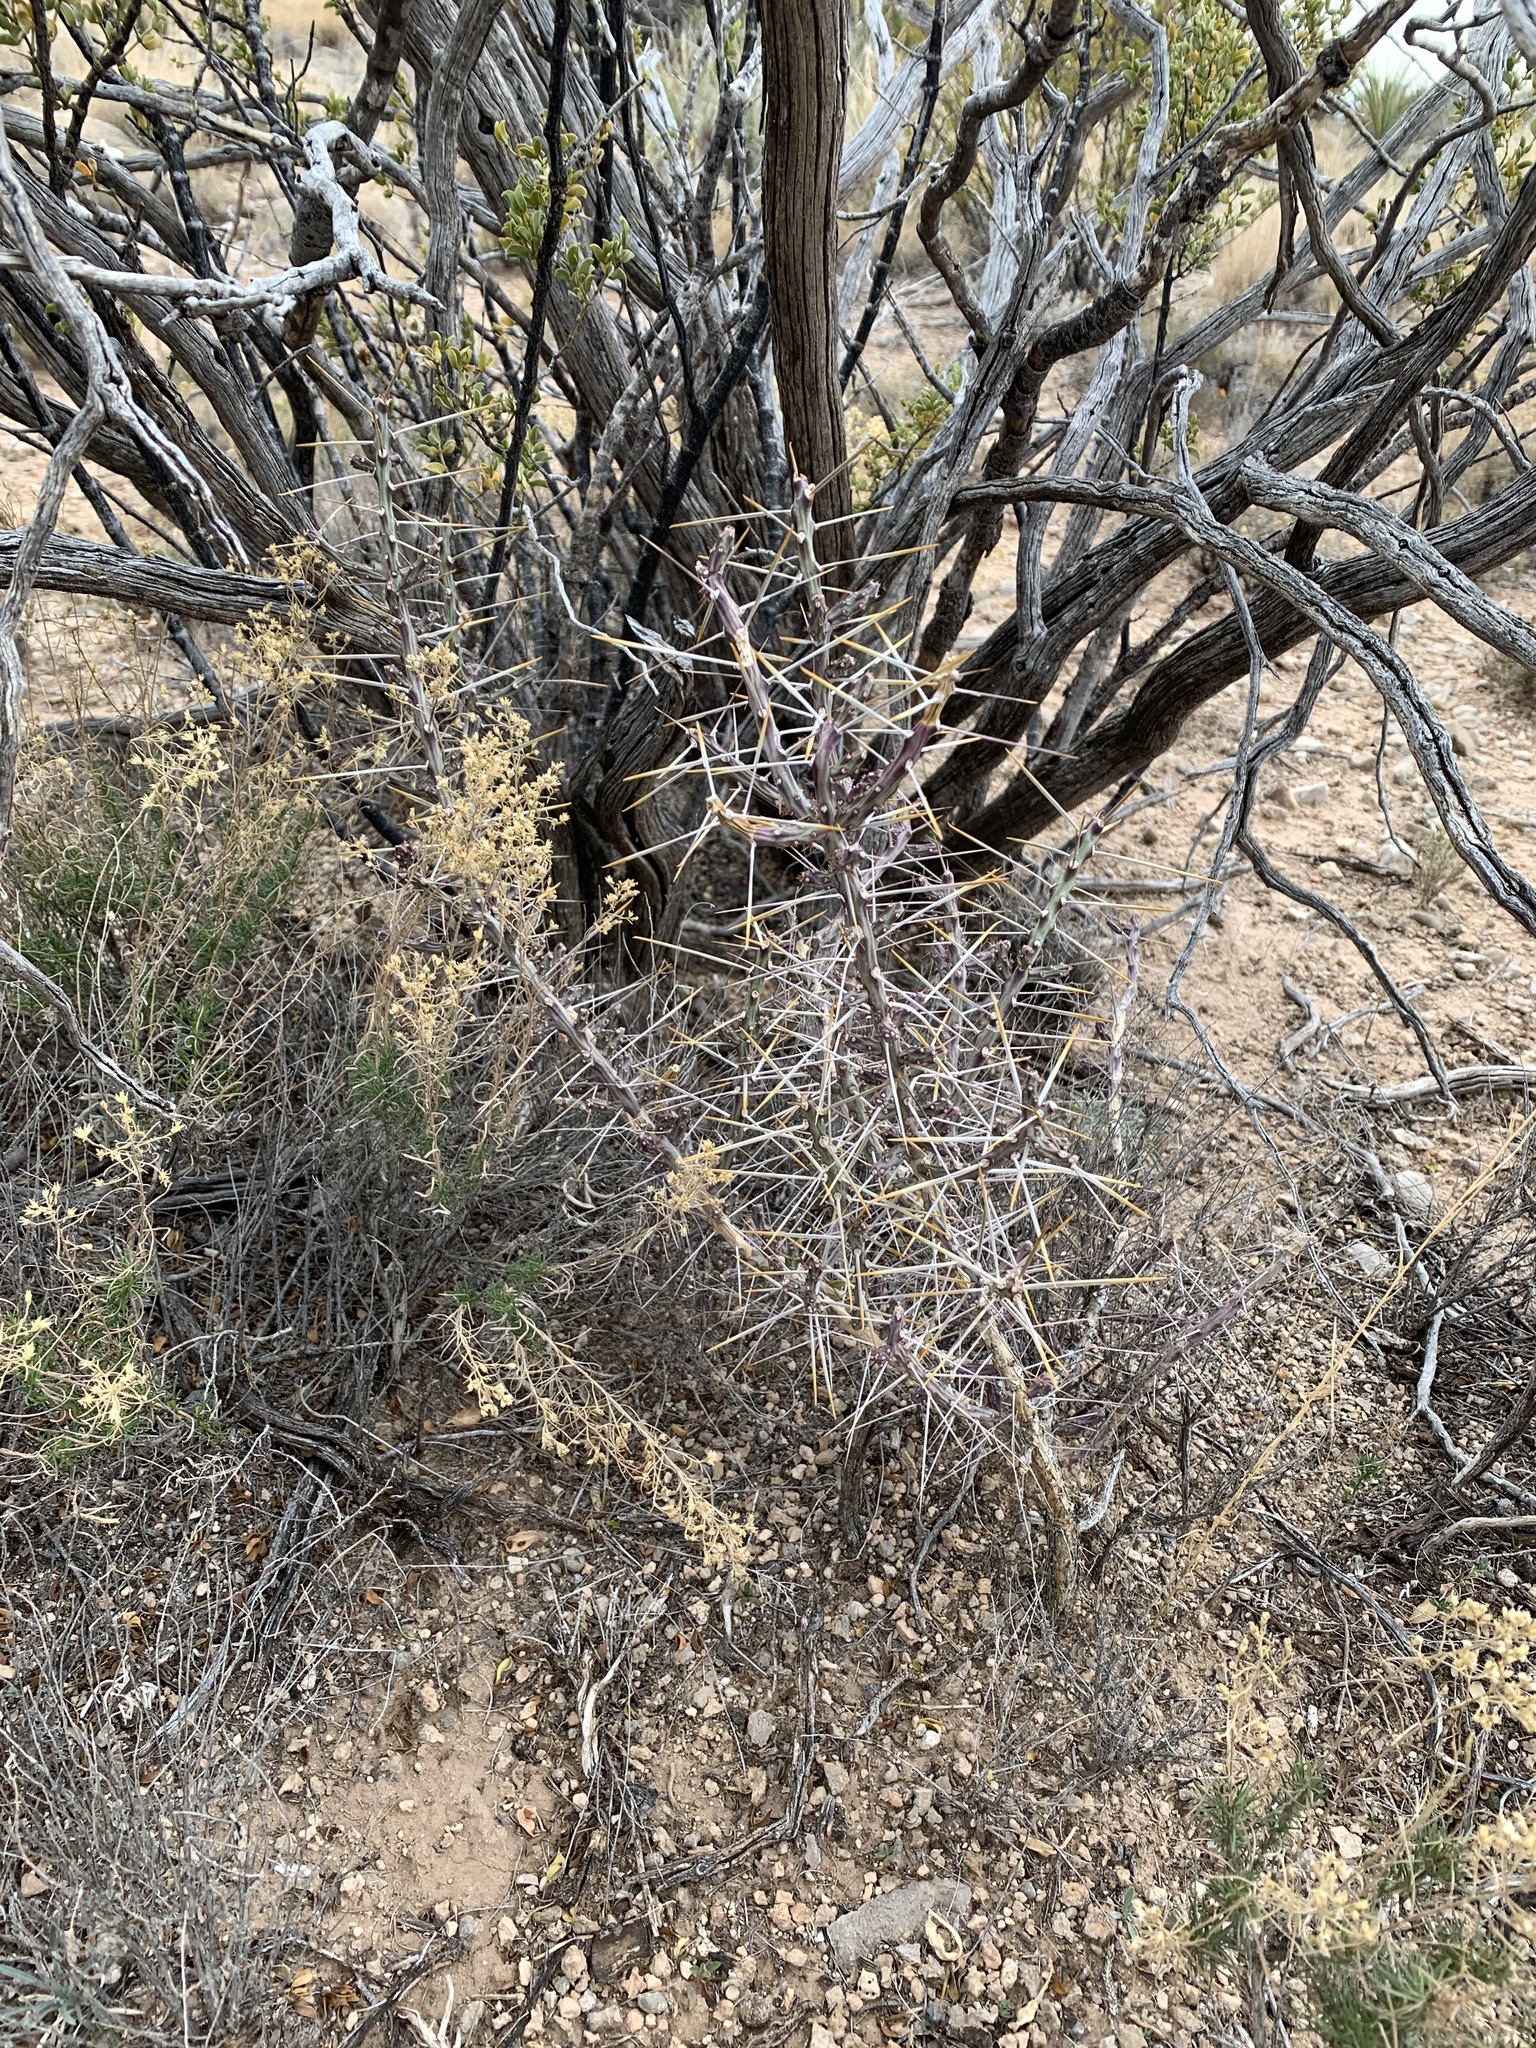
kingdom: Plantae
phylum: Tracheophyta
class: Magnoliopsida
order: Caryophyllales
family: Cactaceae
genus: Cylindropuntia
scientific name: Cylindropuntia leptocaulis
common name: Christmas cactus
